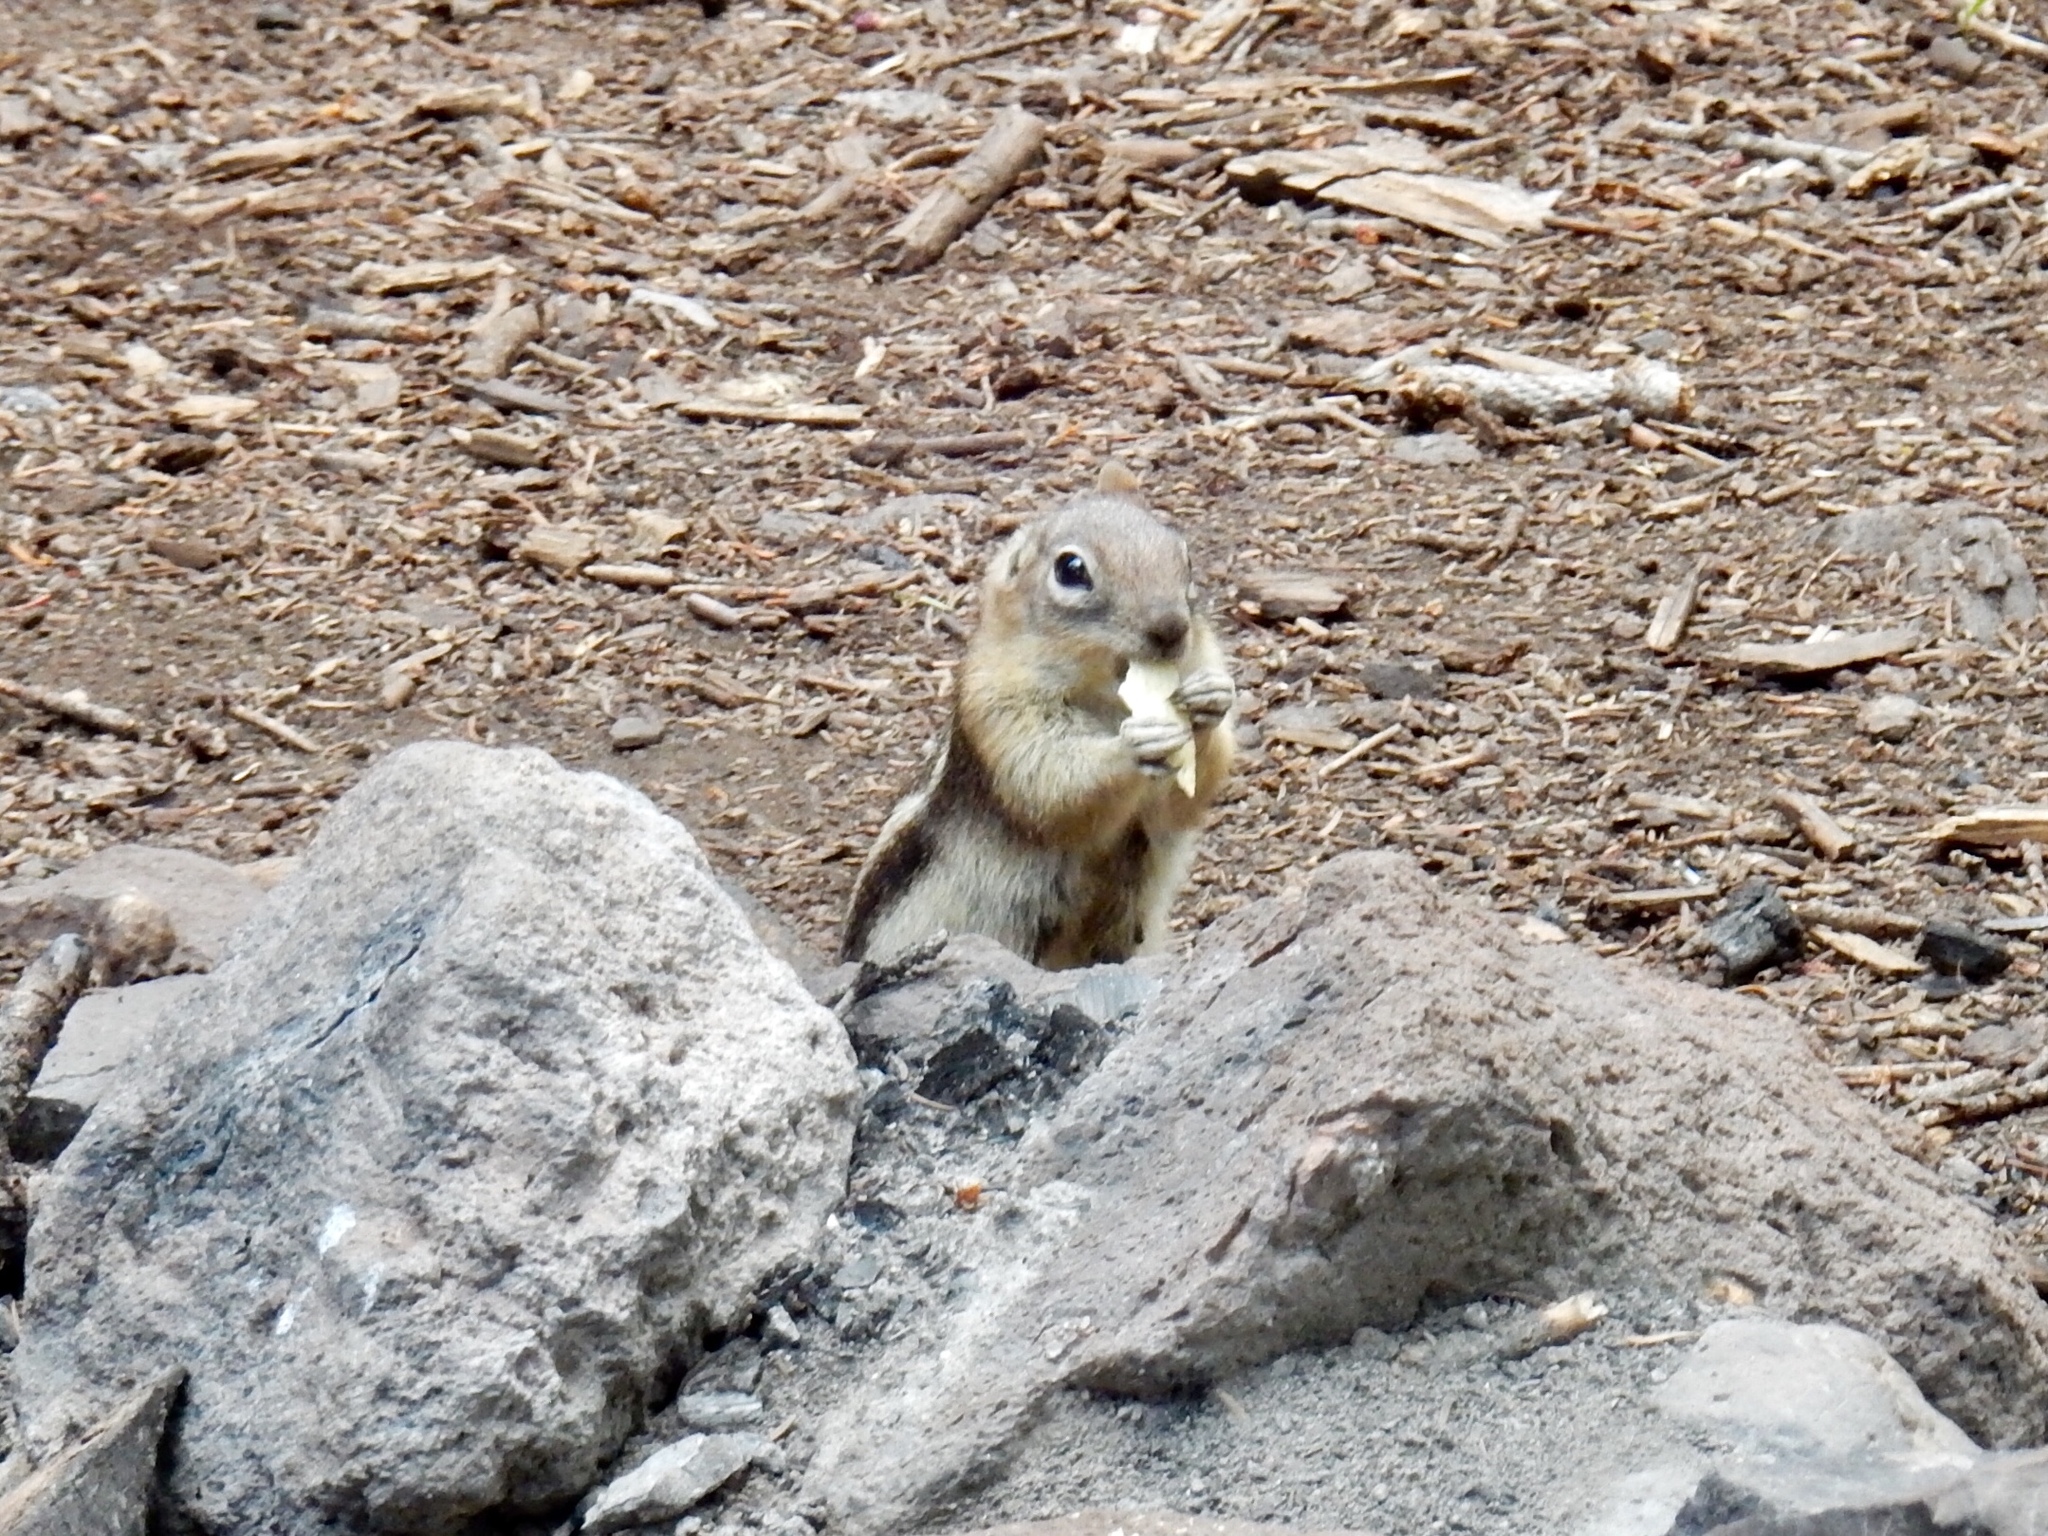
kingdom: Animalia
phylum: Chordata
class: Mammalia
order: Rodentia
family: Sciuridae
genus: Callospermophilus
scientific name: Callospermophilus lateralis
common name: Golden-mantled ground squirrel
